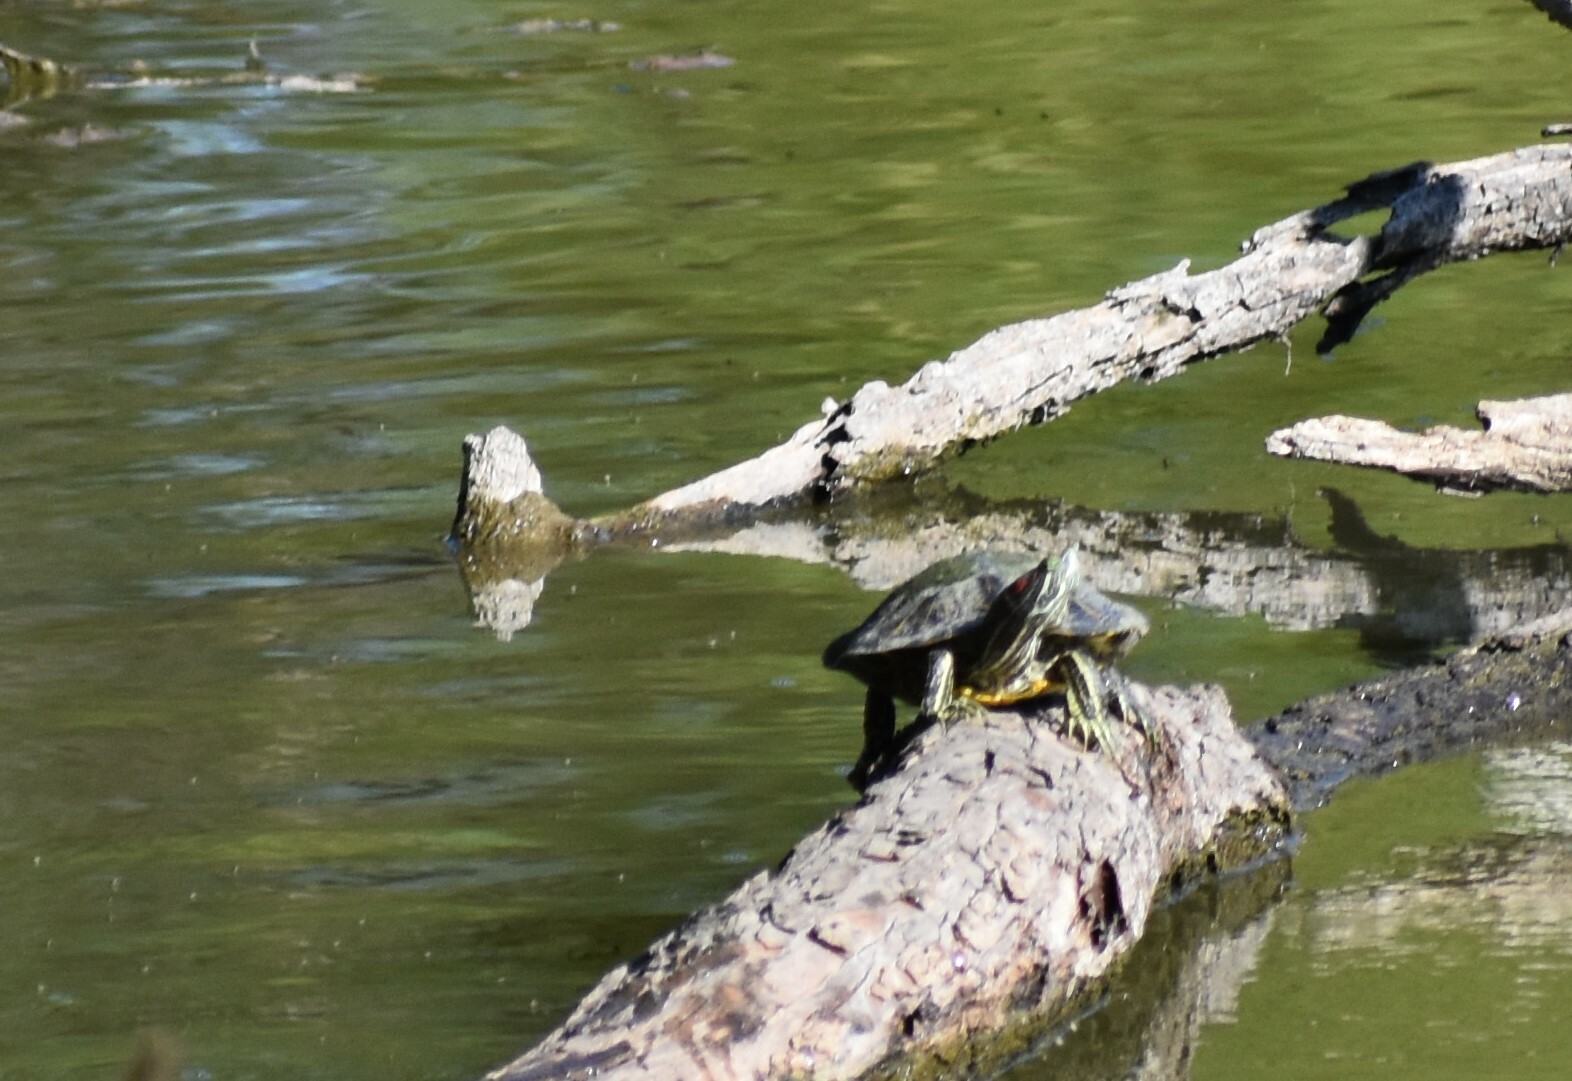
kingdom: Animalia
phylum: Chordata
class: Testudines
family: Emydidae
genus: Trachemys
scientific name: Trachemys scripta
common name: Slider
